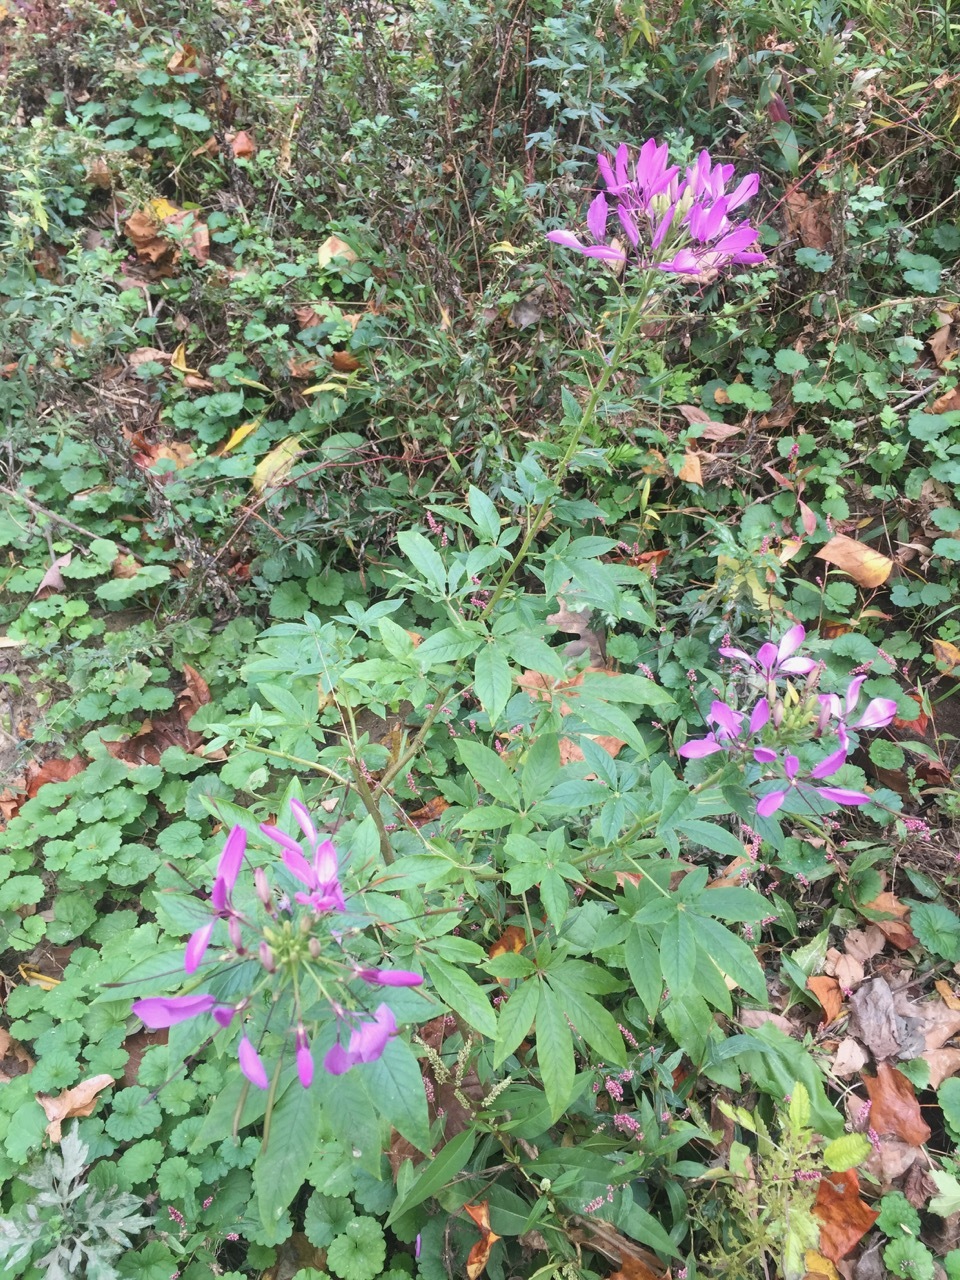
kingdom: Plantae
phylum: Tracheophyta
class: Magnoliopsida
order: Brassicales
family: Cleomaceae
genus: Tarenaya
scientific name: Tarenaya houtteana
